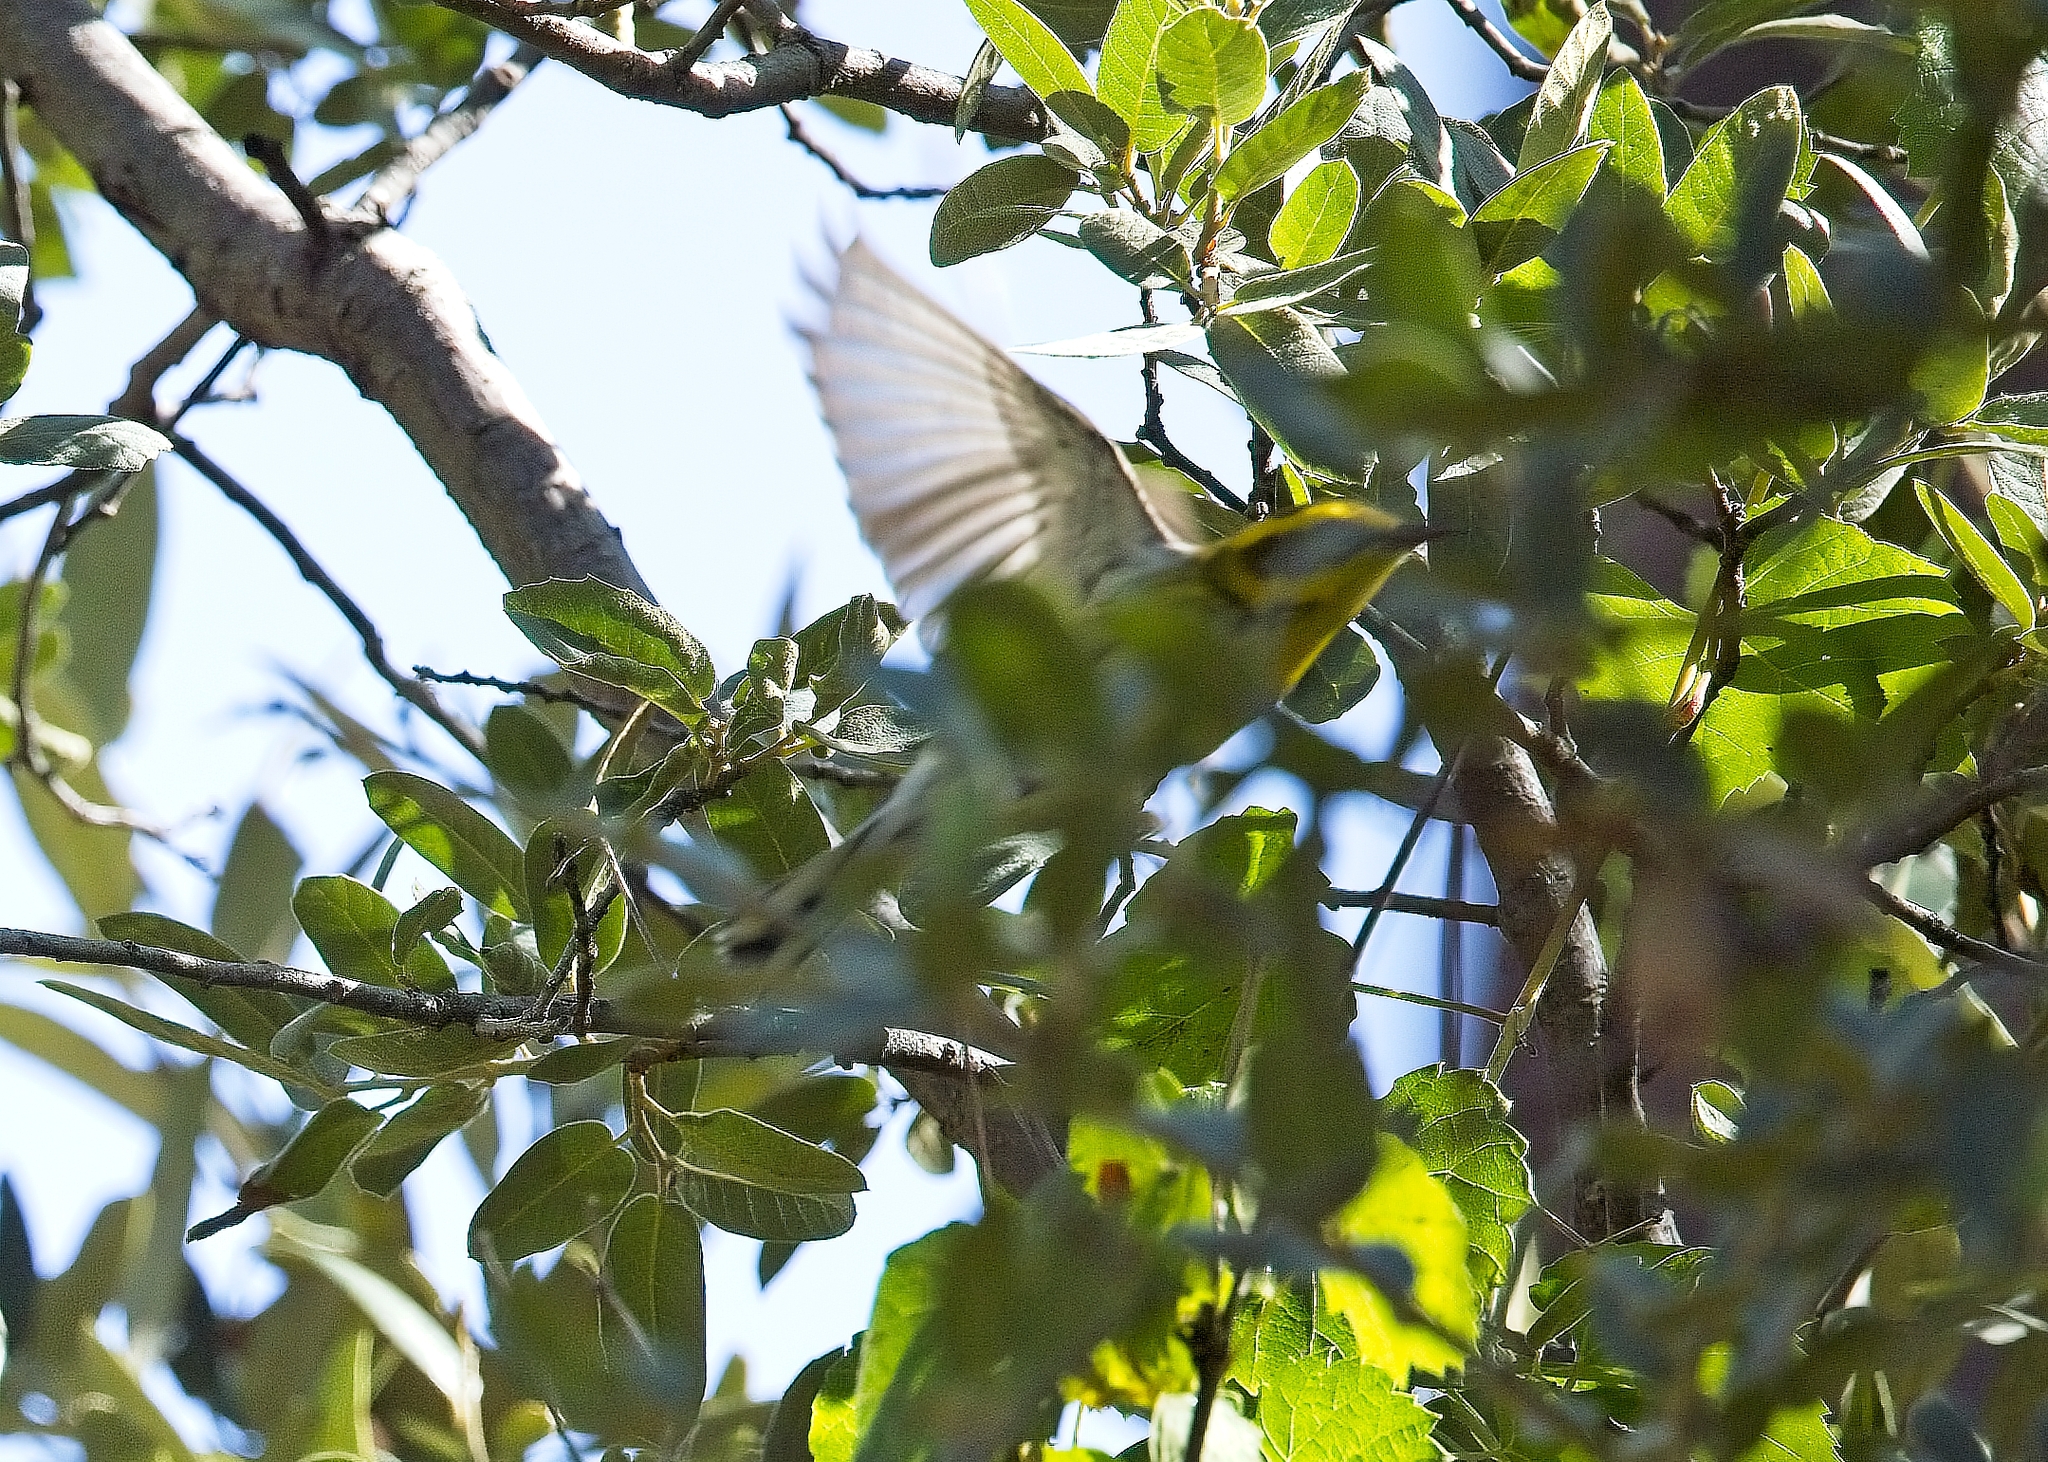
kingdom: Animalia
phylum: Chordata
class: Aves
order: Passeriformes
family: Parulidae
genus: Setophaga
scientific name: Setophaga townsendi
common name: Townsend's warbler
